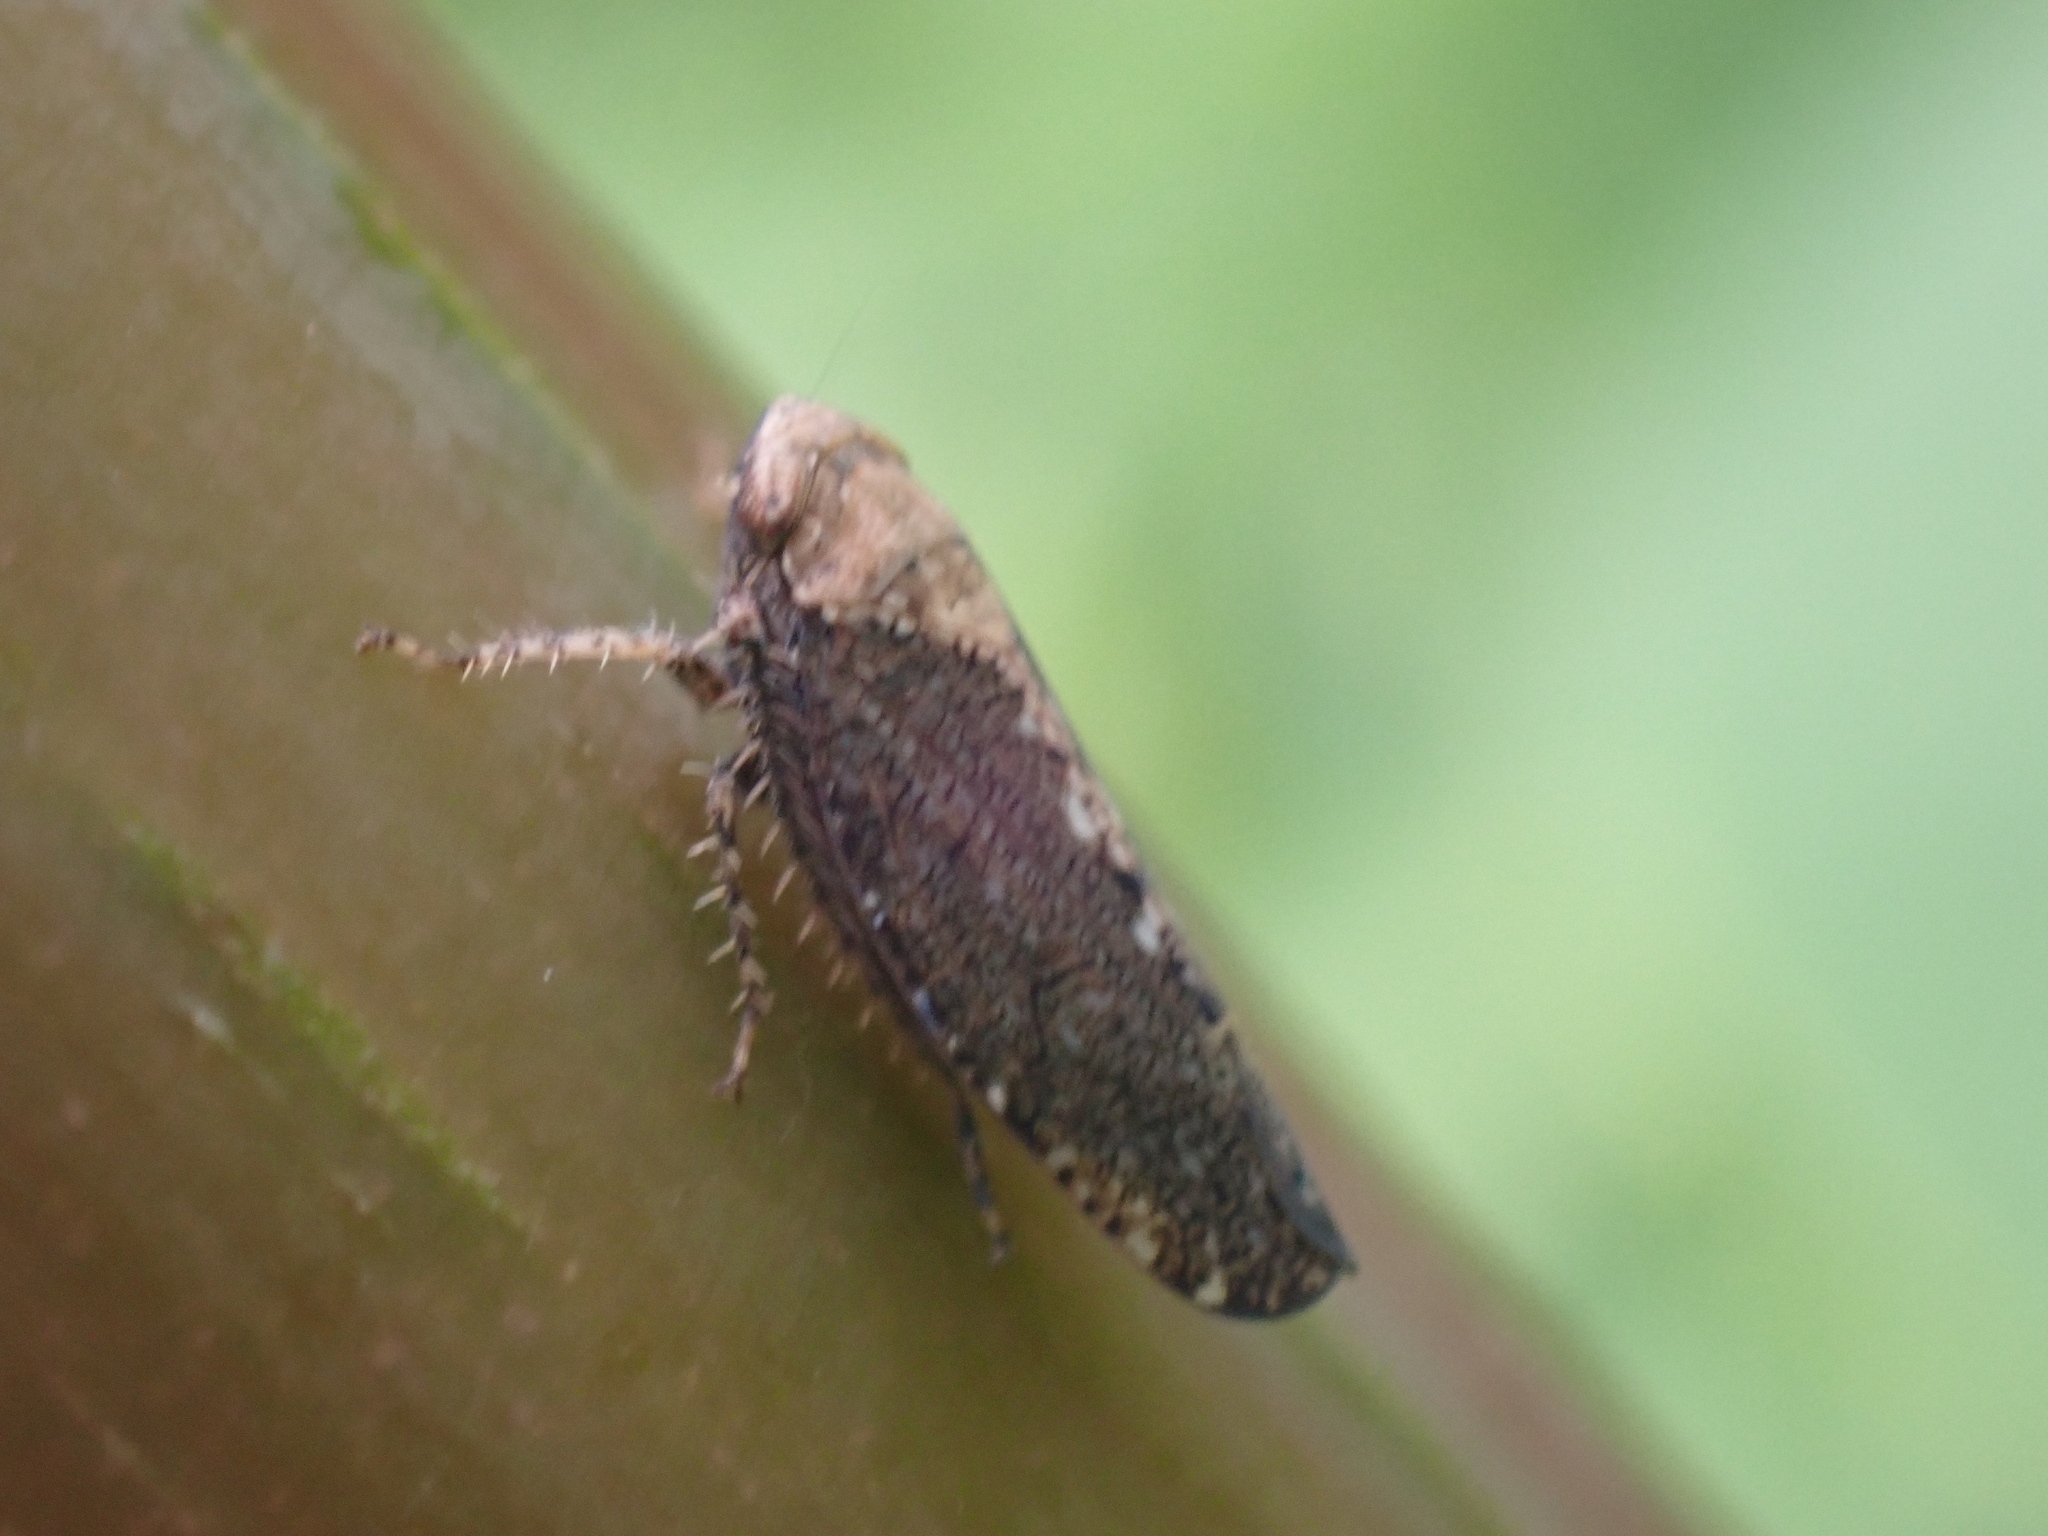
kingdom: Animalia
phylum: Arthropoda
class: Insecta
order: Hemiptera
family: Cicadellidae
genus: Excultanus
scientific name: Excultanus excultus
